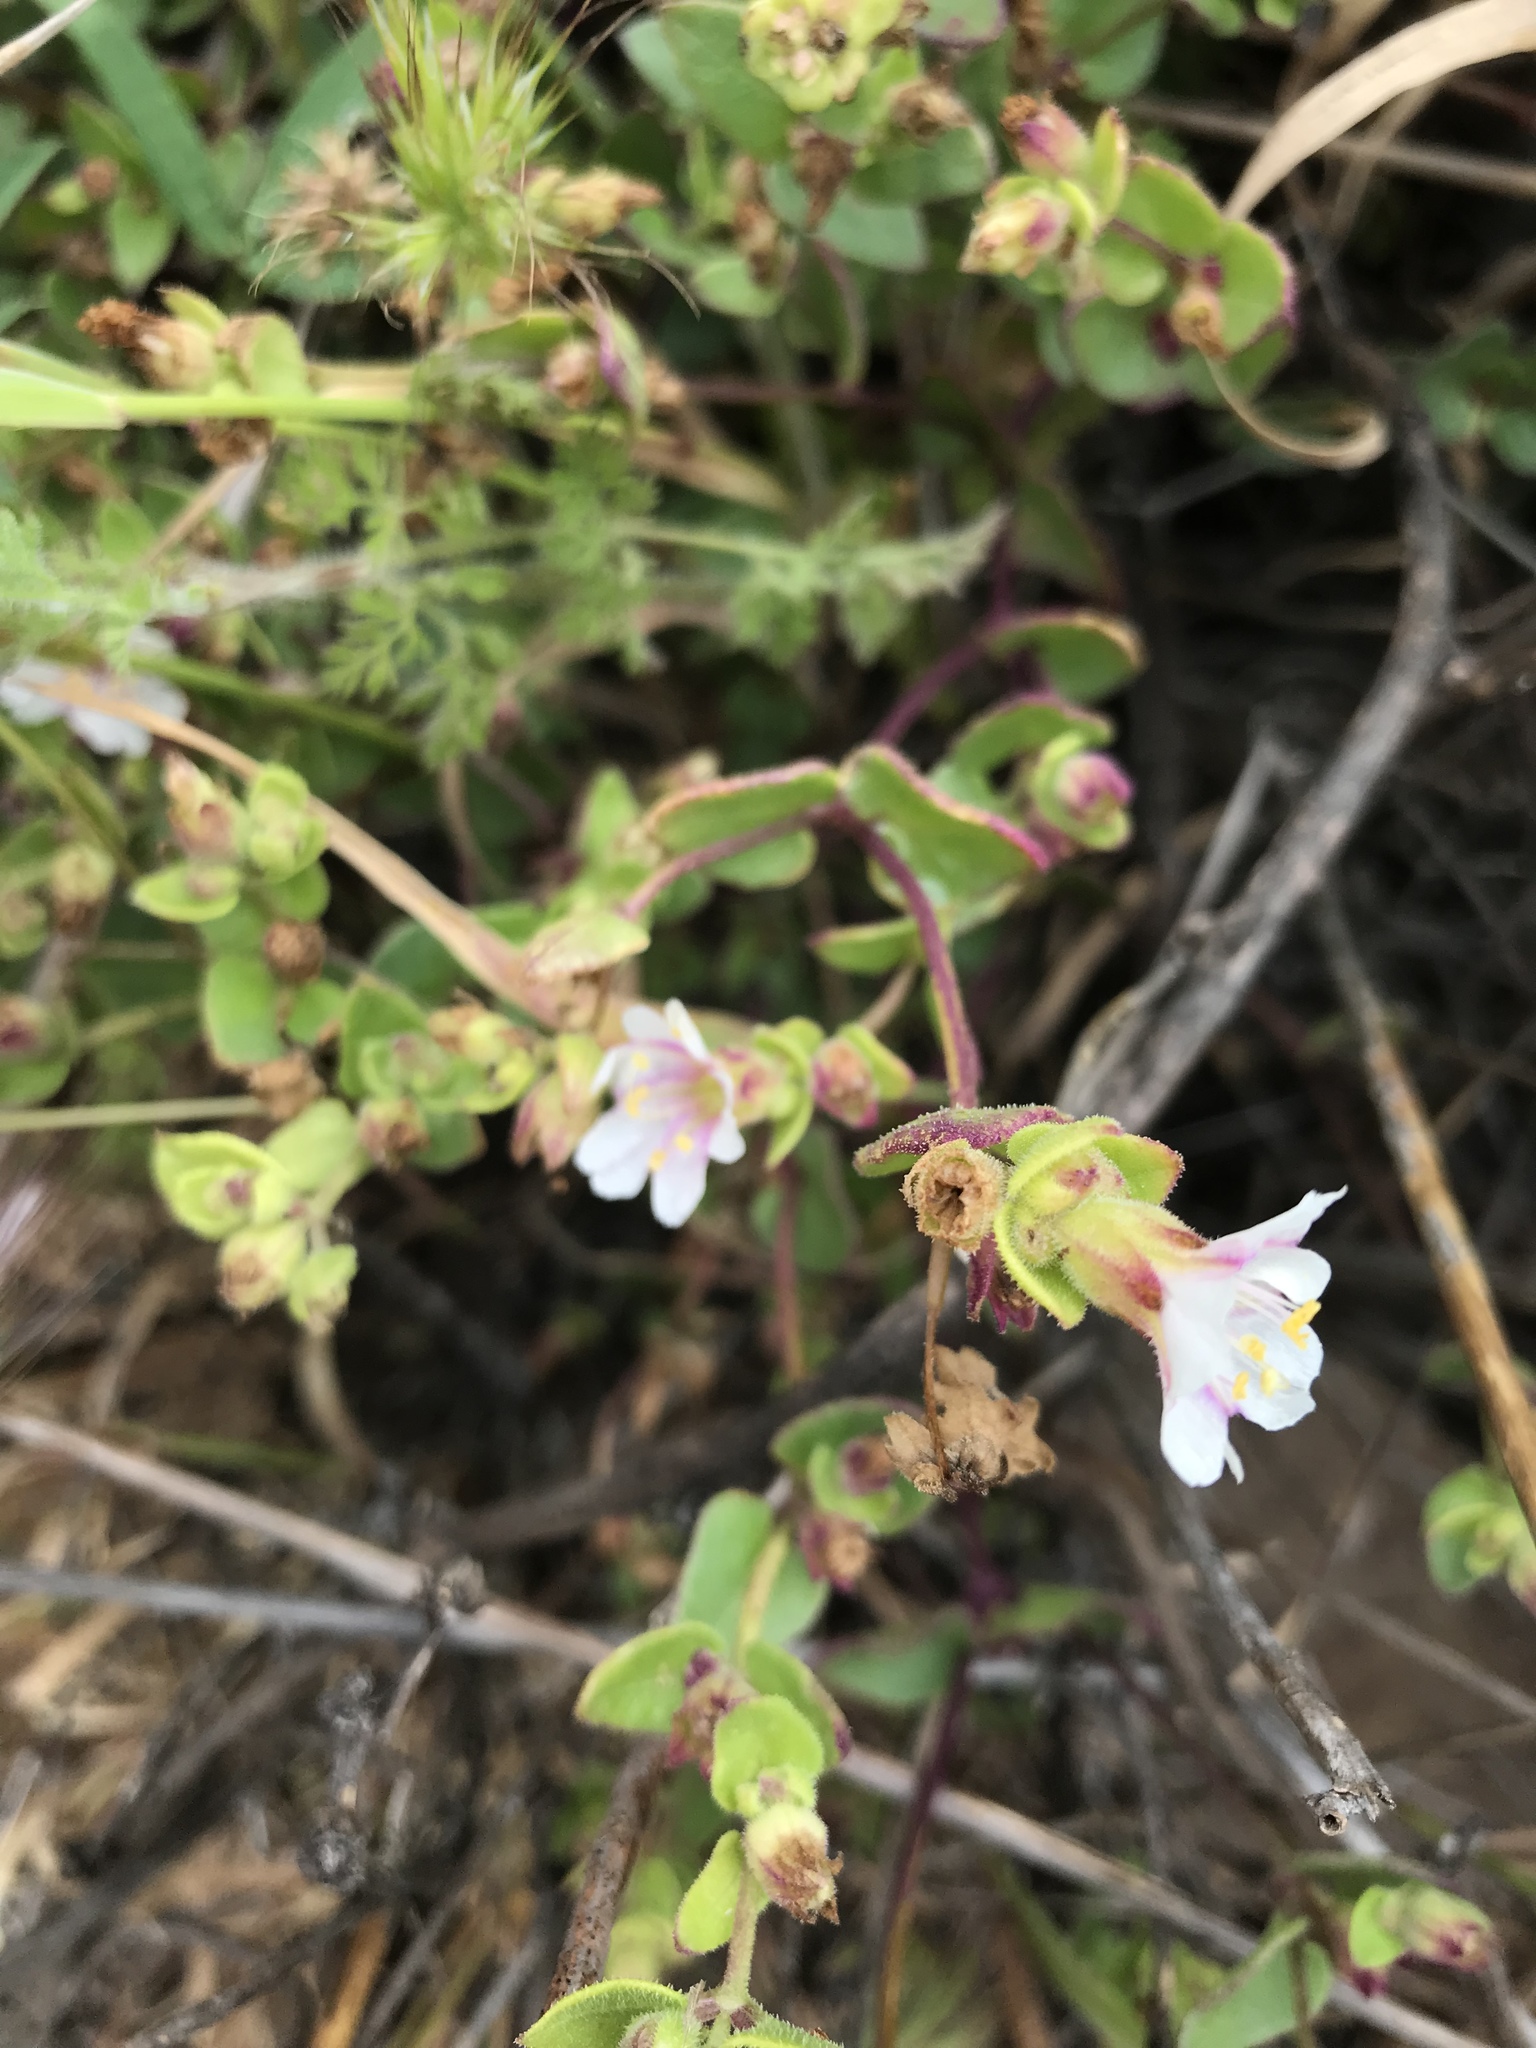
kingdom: Plantae
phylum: Tracheophyta
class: Magnoliopsida
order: Caryophyllales
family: Nyctaginaceae
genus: Mirabilis
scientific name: Mirabilis laevis
